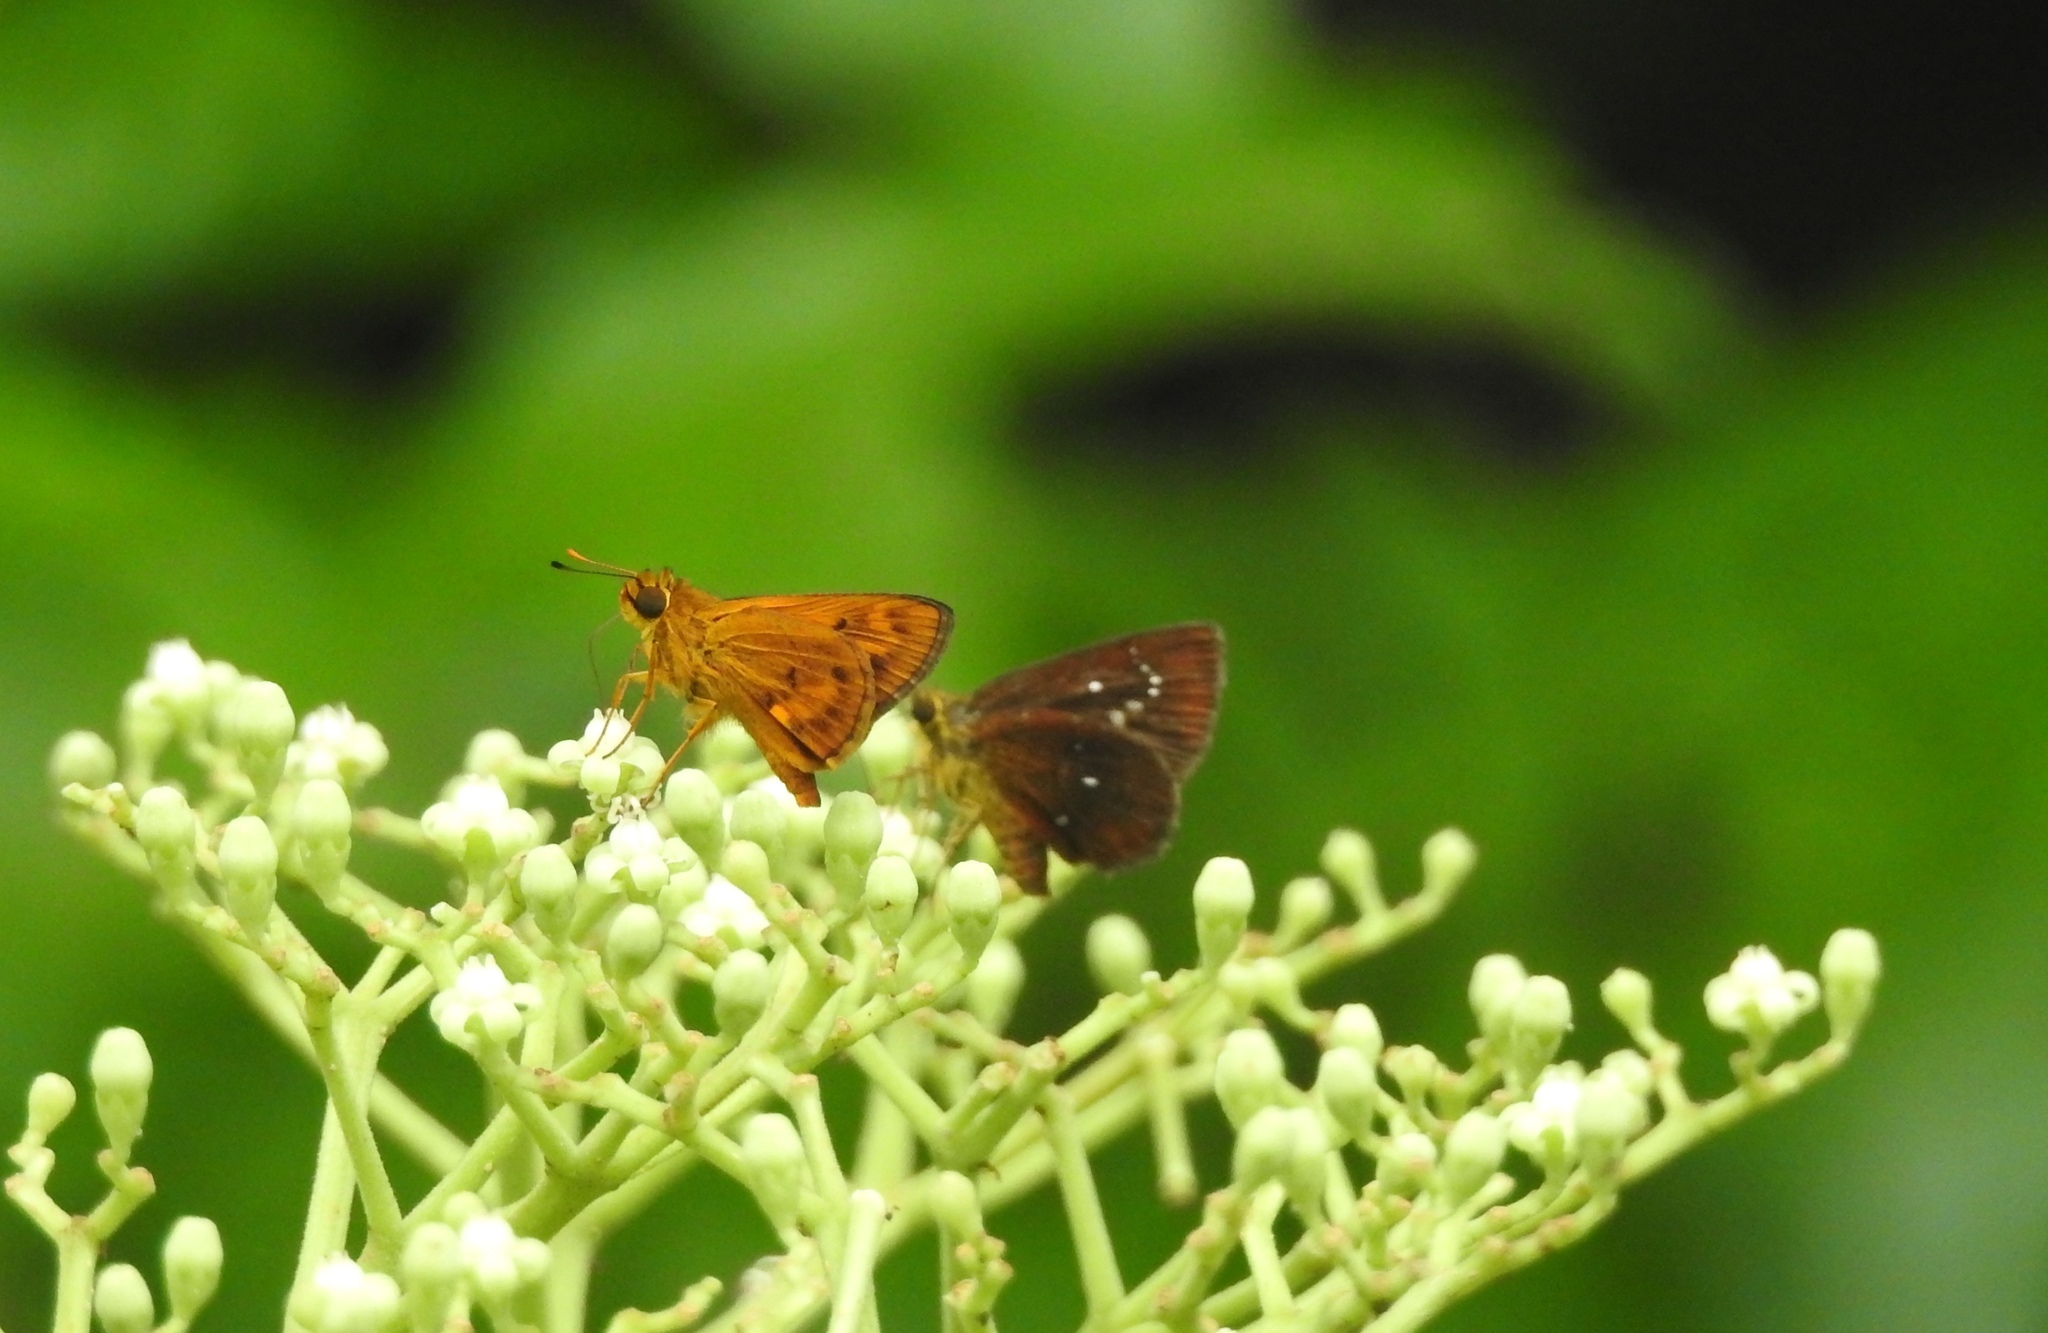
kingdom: Animalia
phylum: Arthropoda
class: Insecta
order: Lepidoptera
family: Hesperiidae
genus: Iambrix
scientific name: Iambrix salsala
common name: Chestnut bob
